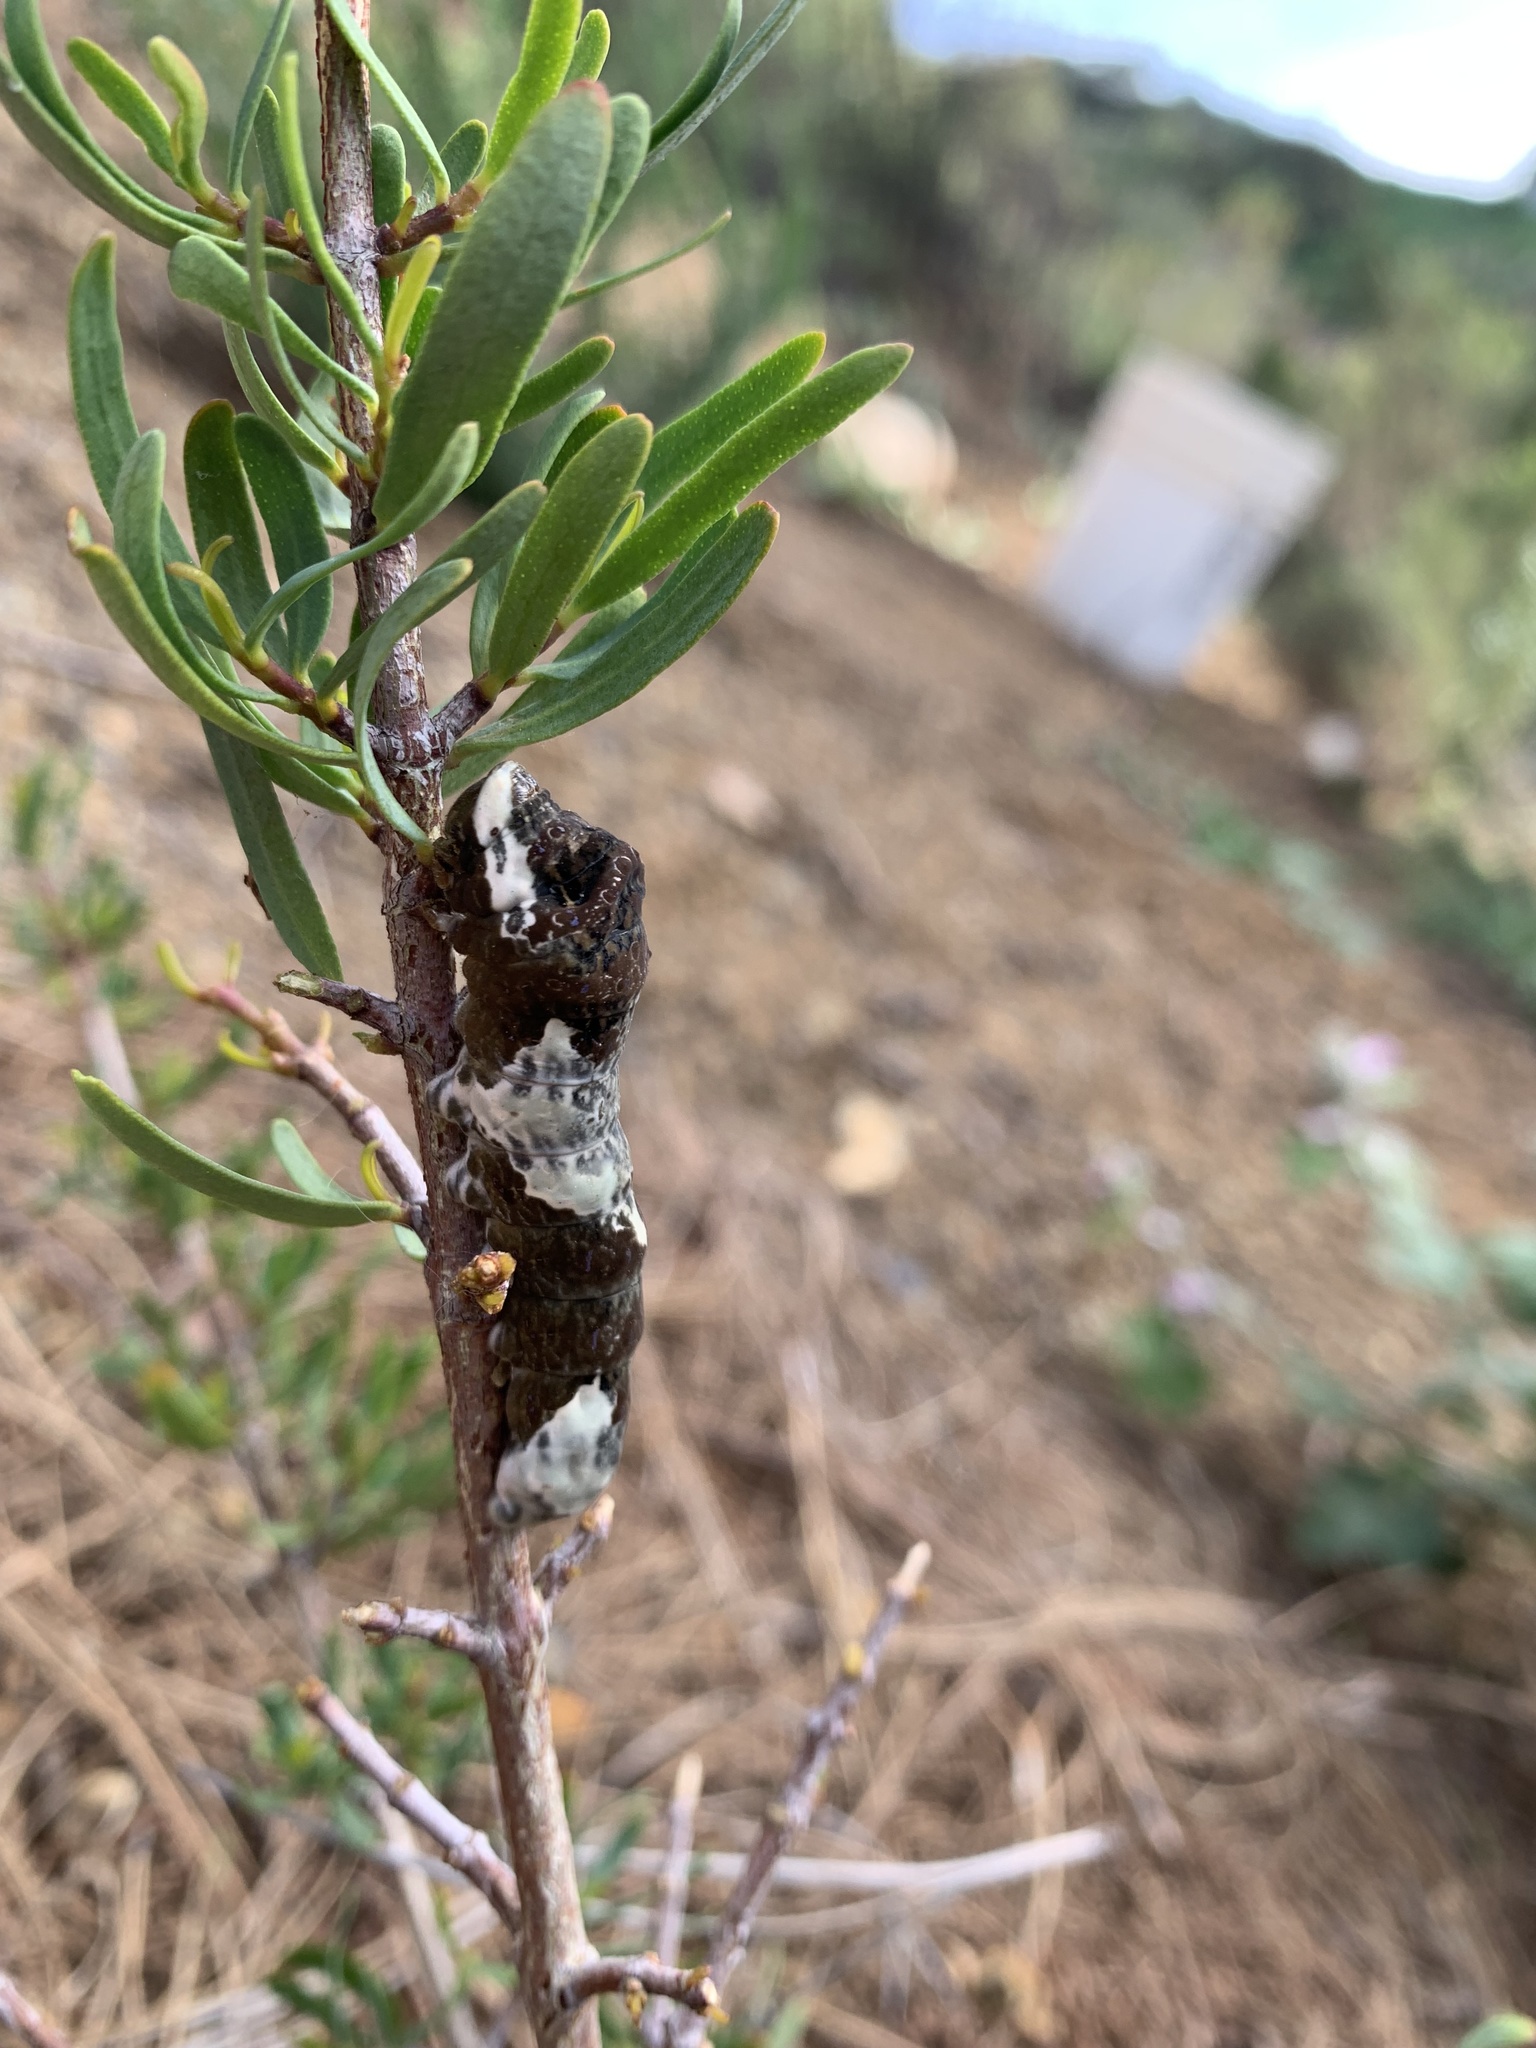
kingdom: Animalia
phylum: Arthropoda
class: Insecta
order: Lepidoptera
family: Papilionidae
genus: Papilio
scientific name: Papilio rumiko
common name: Western giant swallowtail
